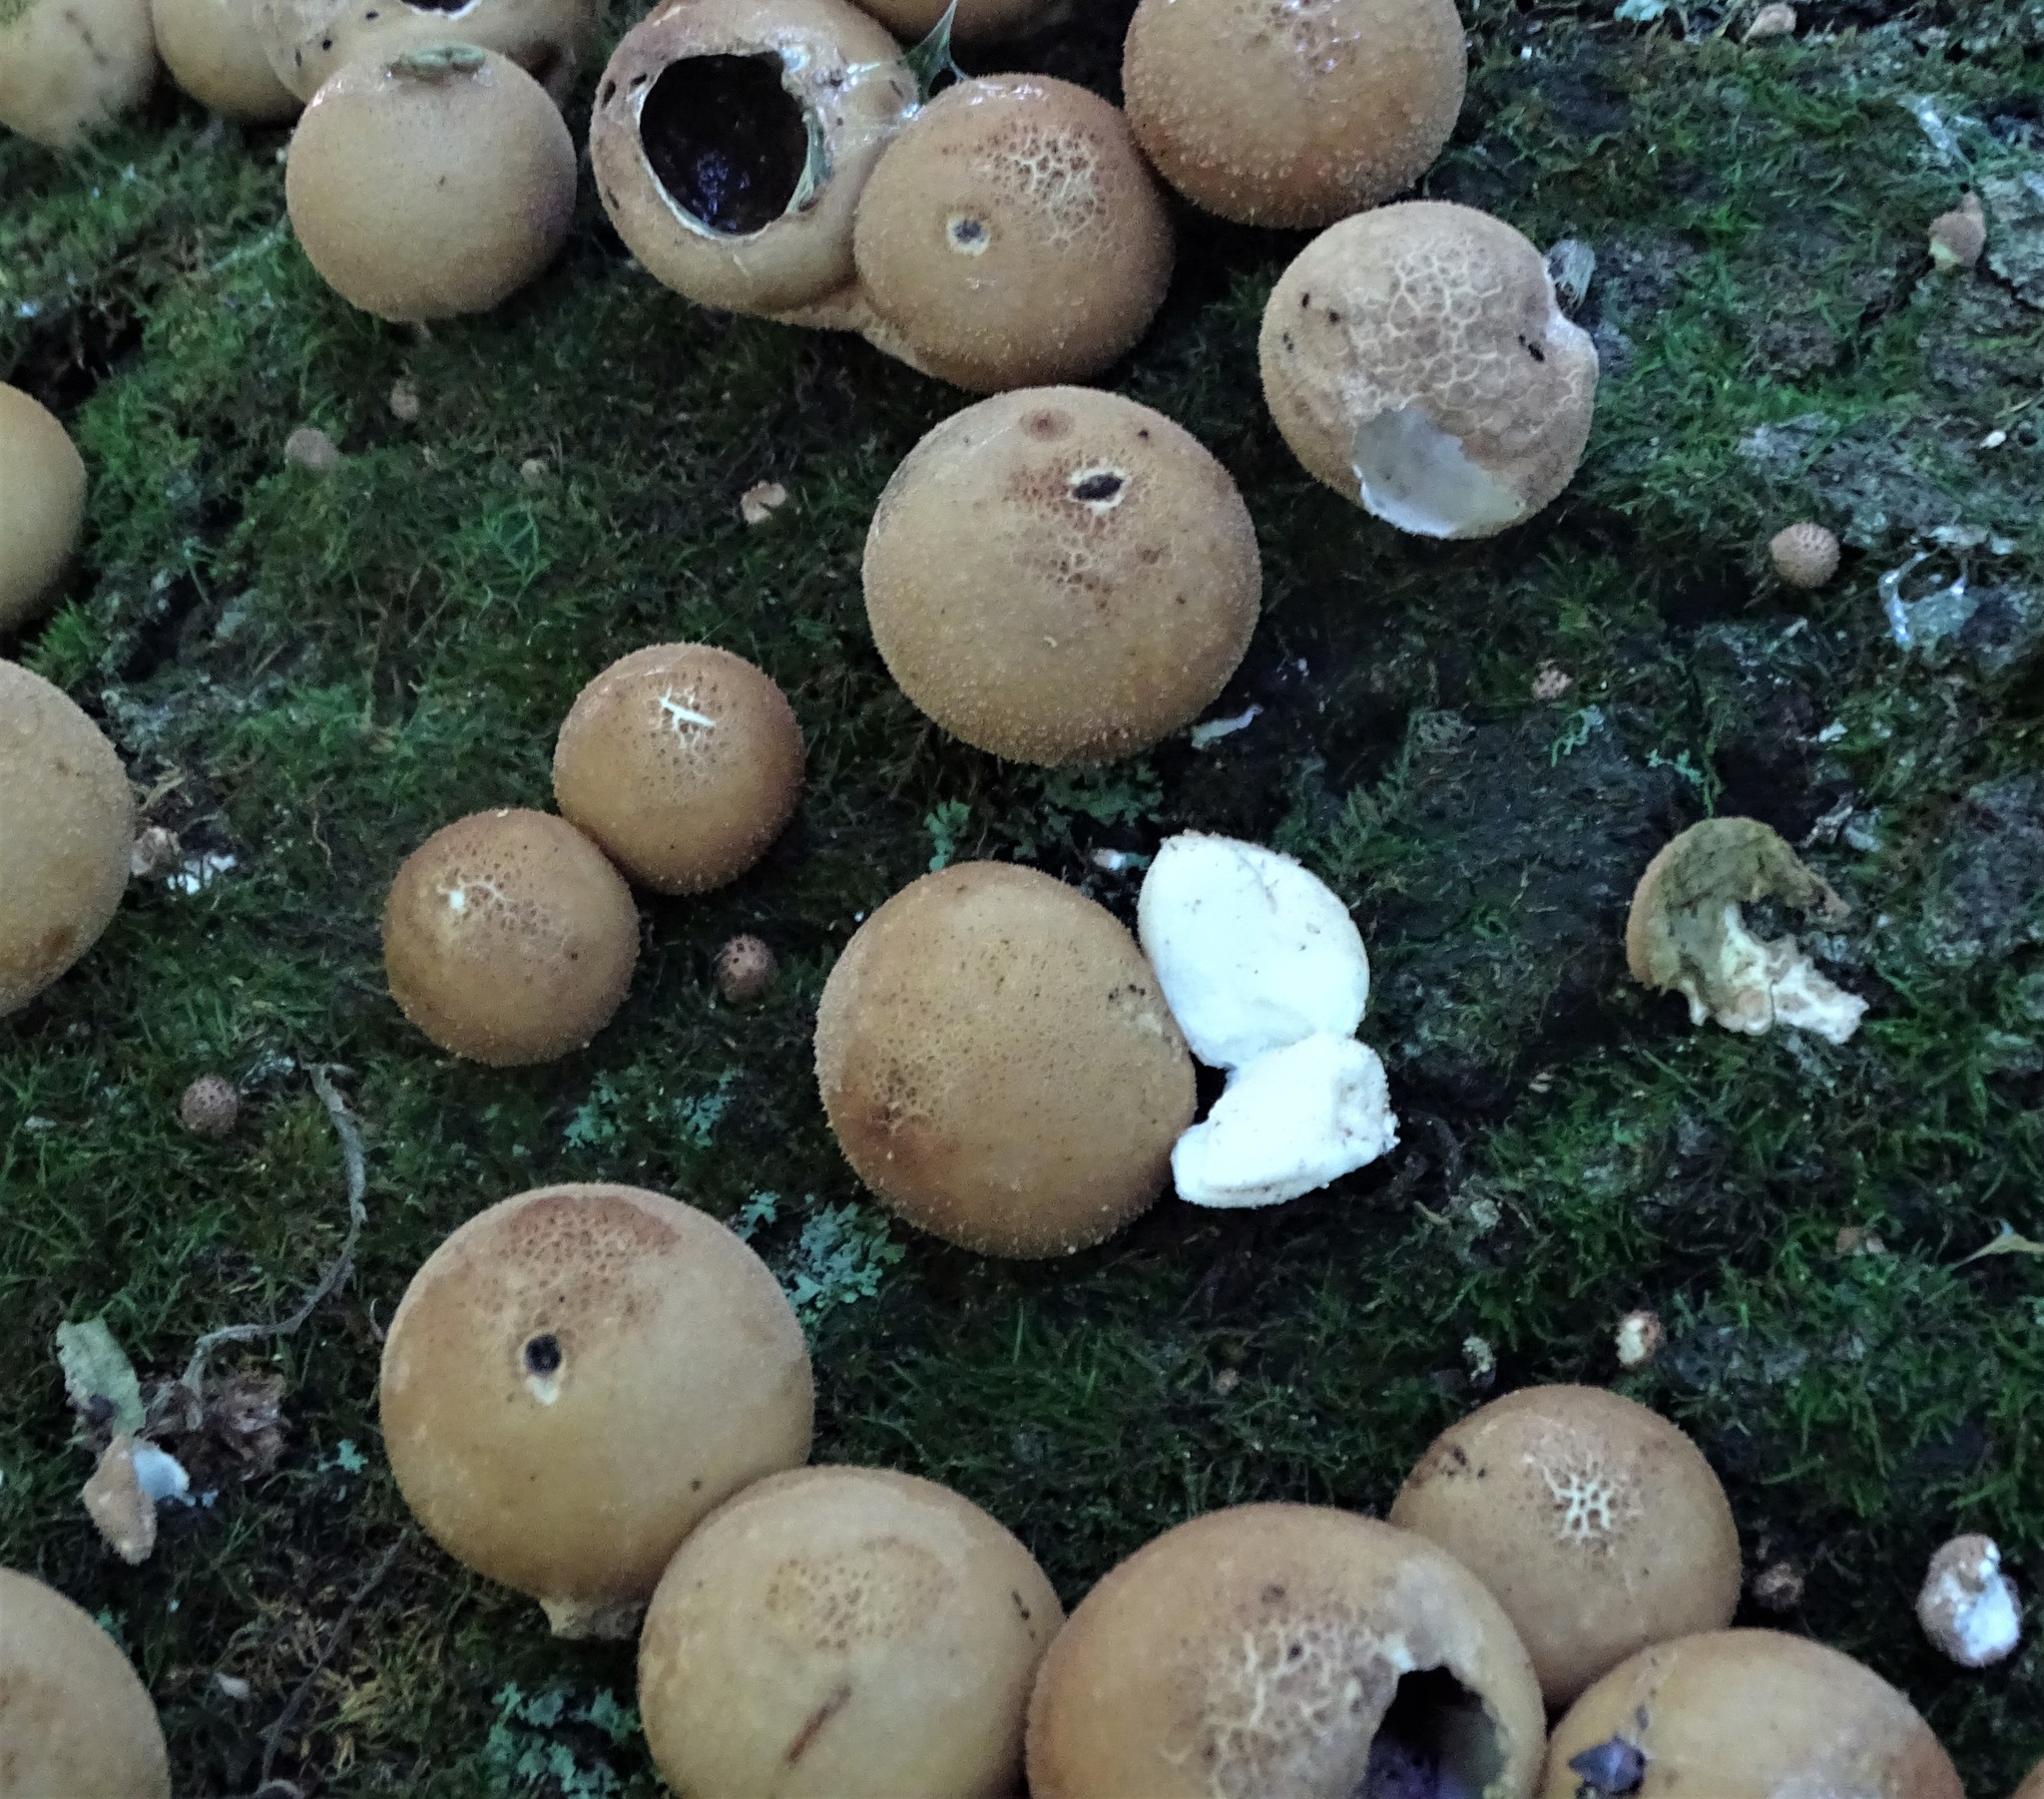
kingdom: Fungi
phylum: Basidiomycota
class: Agaricomycetes
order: Agaricales
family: Lycoperdaceae
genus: Apioperdon
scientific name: Apioperdon pyriforme
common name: Pear-shaped puffball
